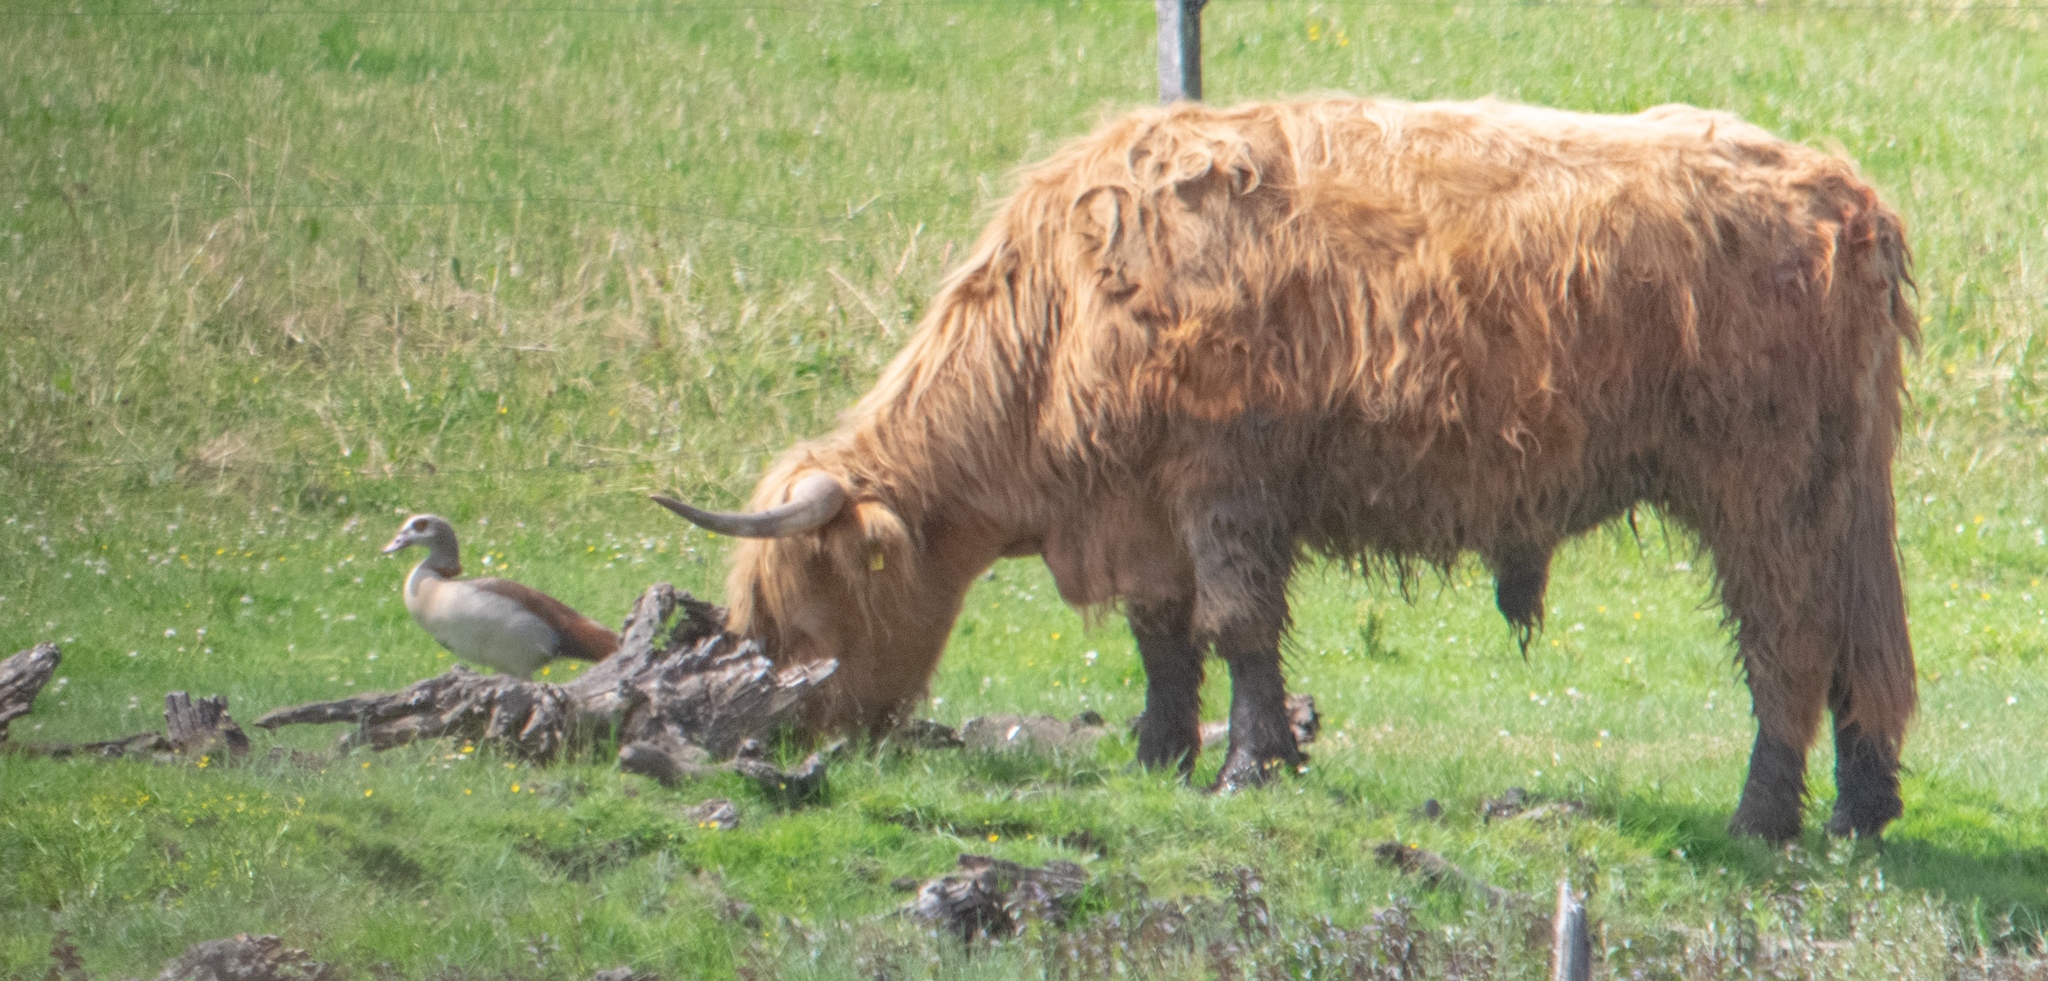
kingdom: Animalia
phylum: Chordata
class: Aves
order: Anseriformes
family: Anatidae
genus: Alopochen
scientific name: Alopochen aegyptiaca
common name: Egyptian goose
